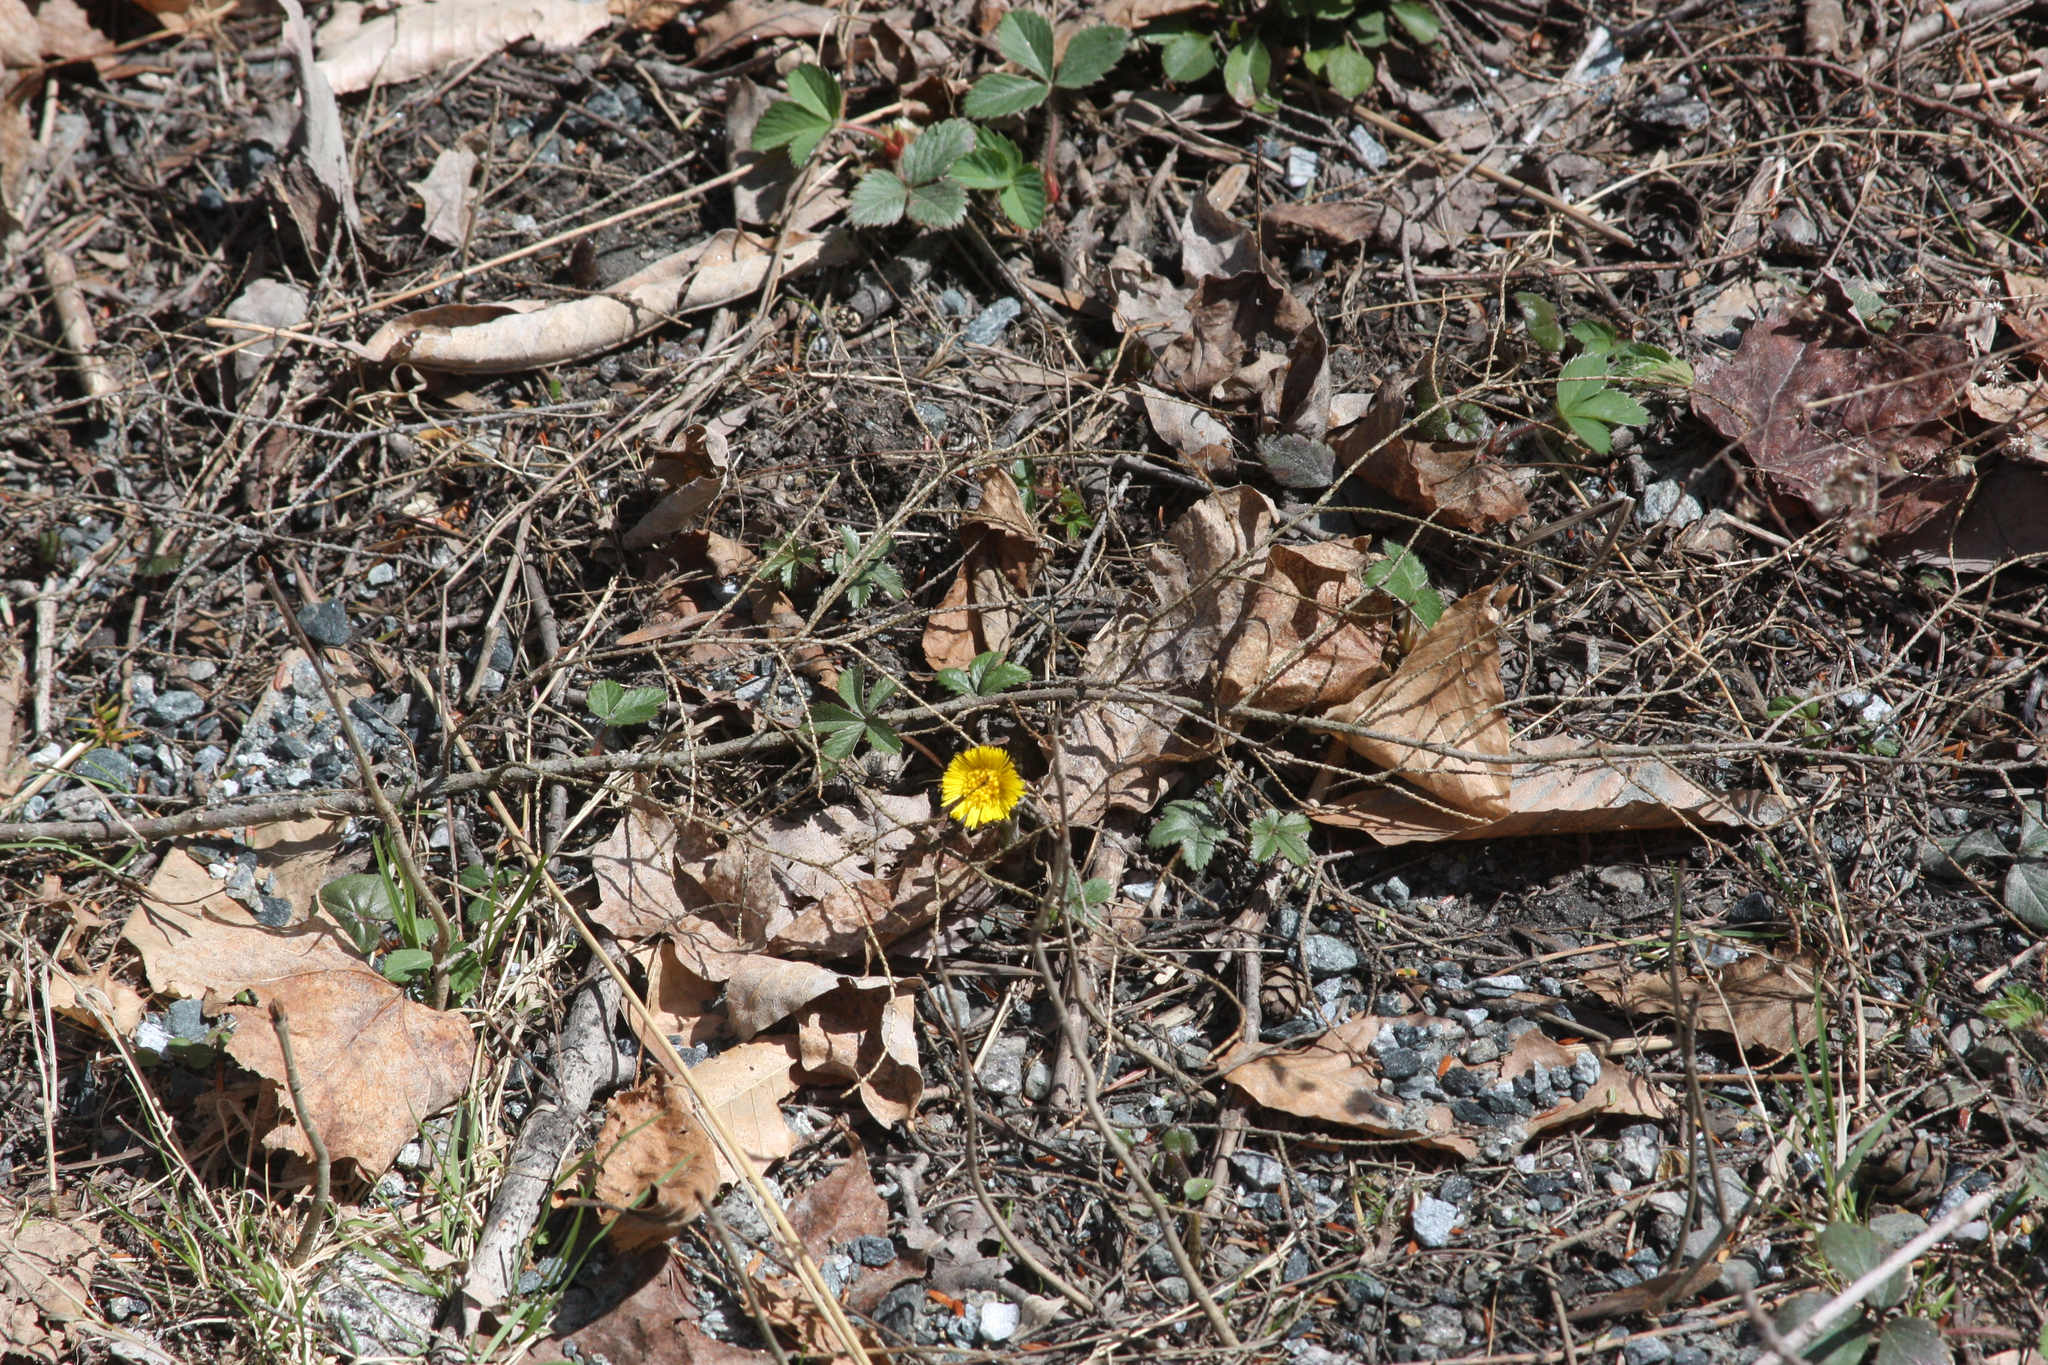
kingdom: Plantae
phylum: Tracheophyta
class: Magnoliopsida
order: Asterales
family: Asteraceae
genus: Tussilago
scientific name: Tussilago farfara
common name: Coltsfoot
